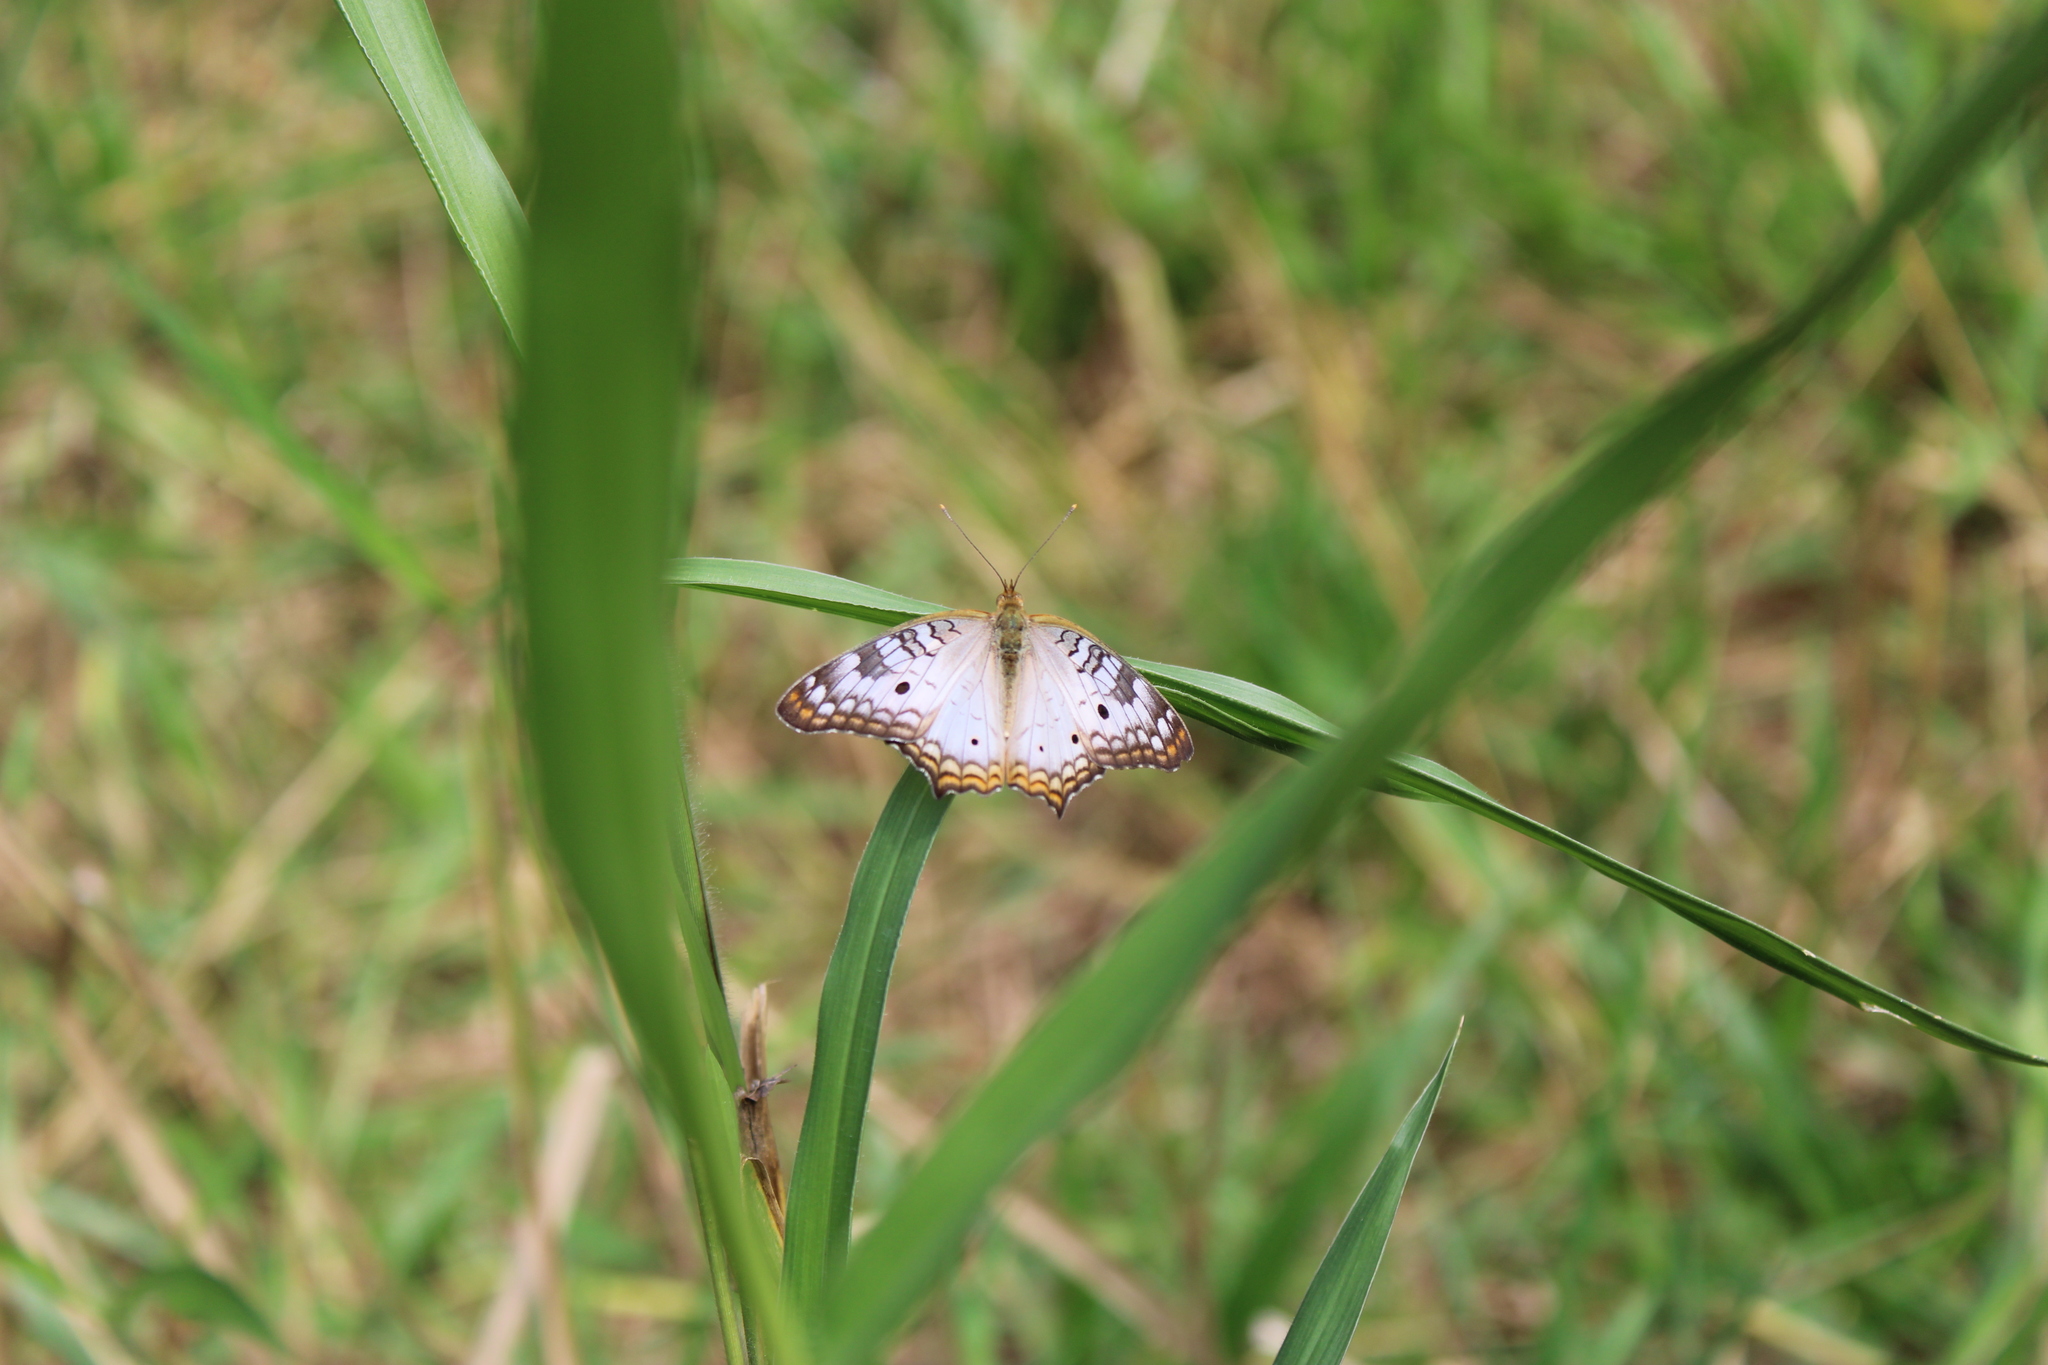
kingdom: Animalia
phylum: Arthropoda
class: Insecta
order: Lepidoptera
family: Nymphalidae
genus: Anartia
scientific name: Anartia jatrophae
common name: White peacock
